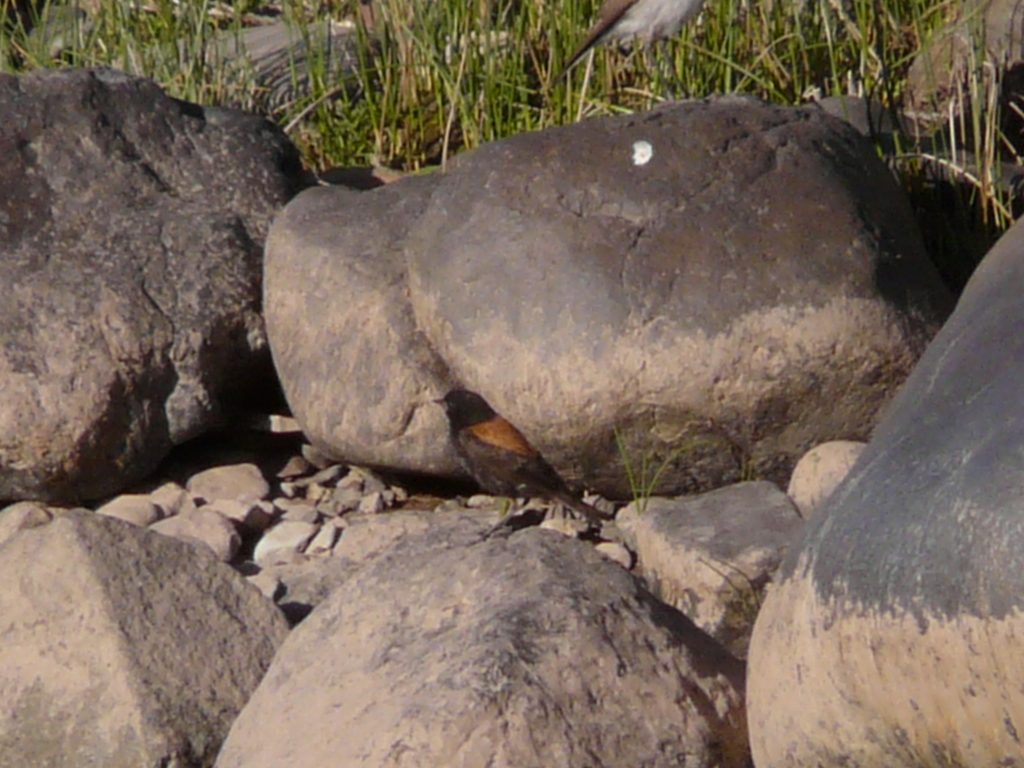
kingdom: Animalia
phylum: Chordata
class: Aves
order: Passeriformes
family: Tyrannidae
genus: Lessonia
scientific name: Lessonia rufa
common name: Austral negrito
